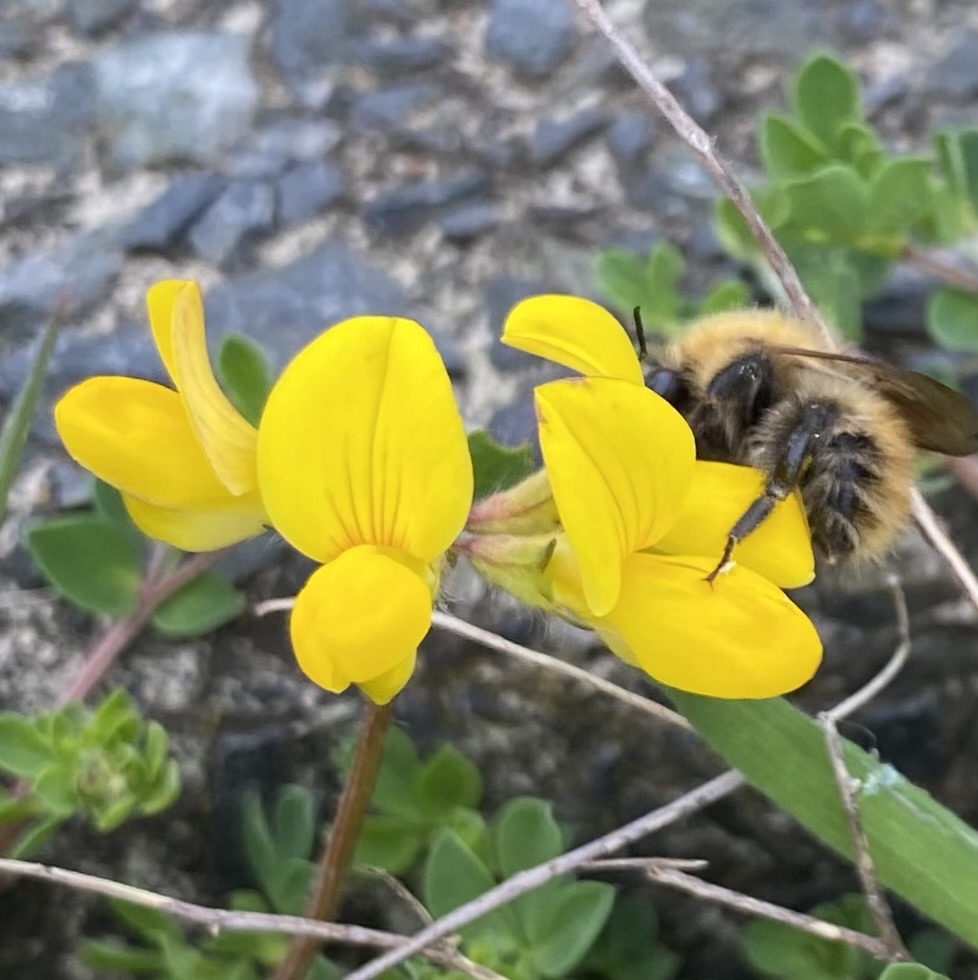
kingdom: Animalia
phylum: Arthropoda
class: Insecta
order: Hymenoptera
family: Apidae
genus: Bombus
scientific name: Bombus pascuorum
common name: Common carder bee
